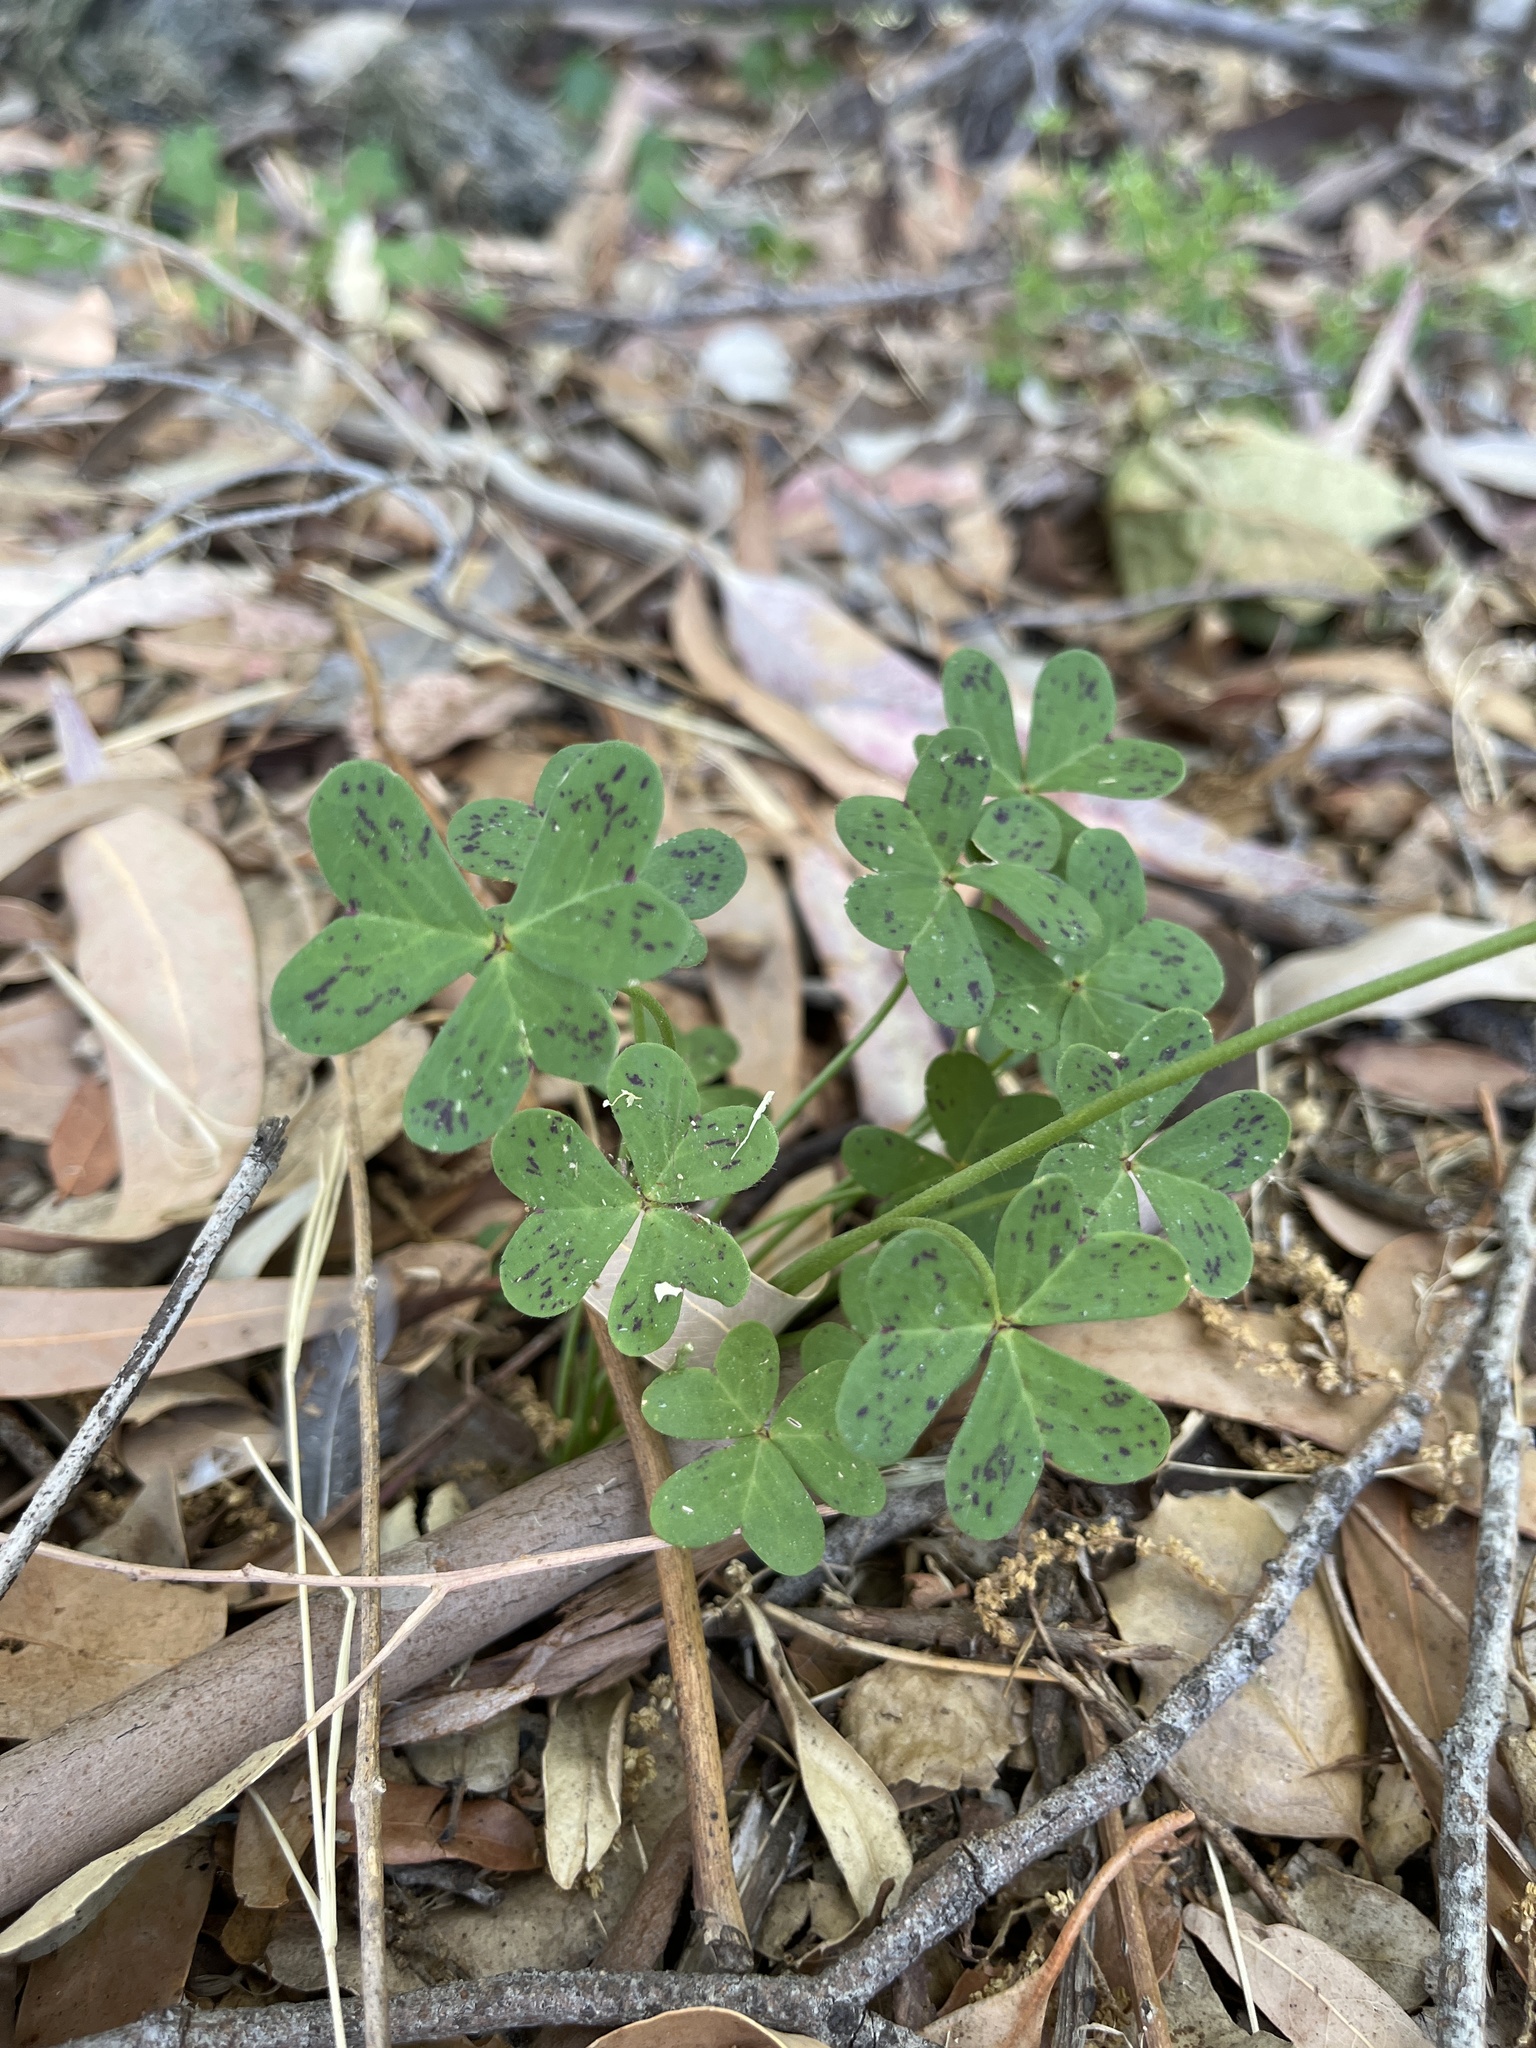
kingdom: Plantae
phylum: Tracheophyta
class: Magnoliopsida
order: Oxalidales
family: Oxalidaceae
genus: Oxalis
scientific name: Oxalis pes-caprae
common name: Bermuda-buttercup
